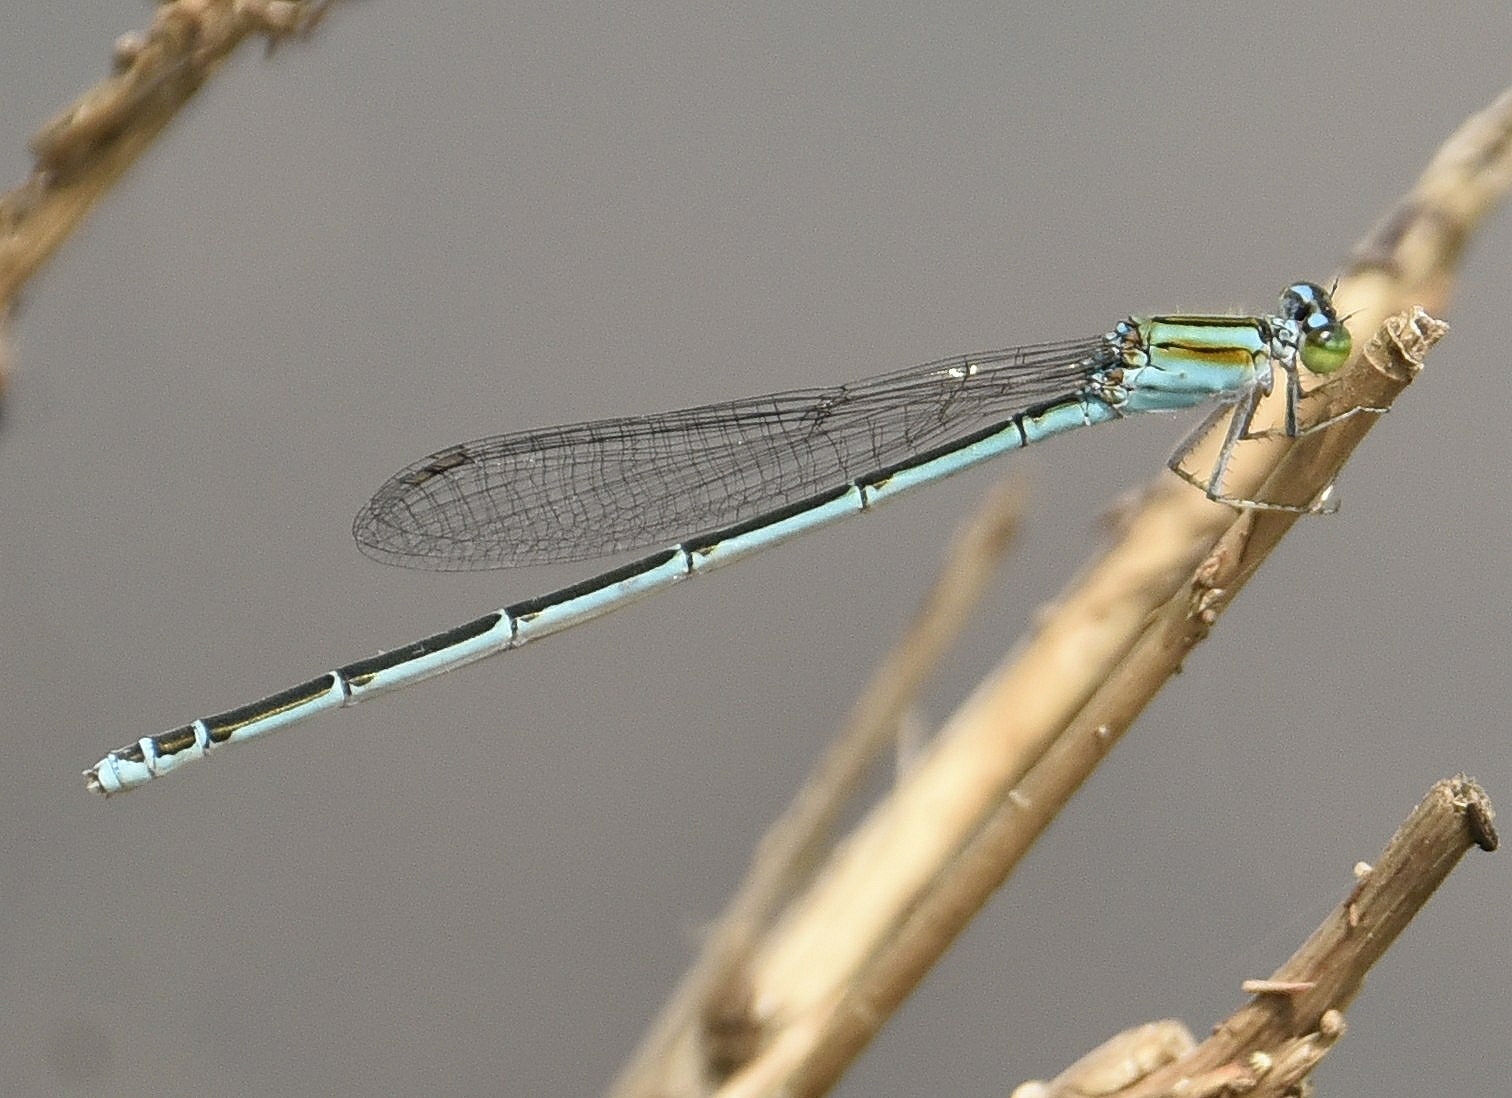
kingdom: Animalia
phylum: Arthropoda
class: Insecta
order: Odonata
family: Coenagrionidae
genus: Pseudagrion
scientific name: Pseudagrion malabaricum
